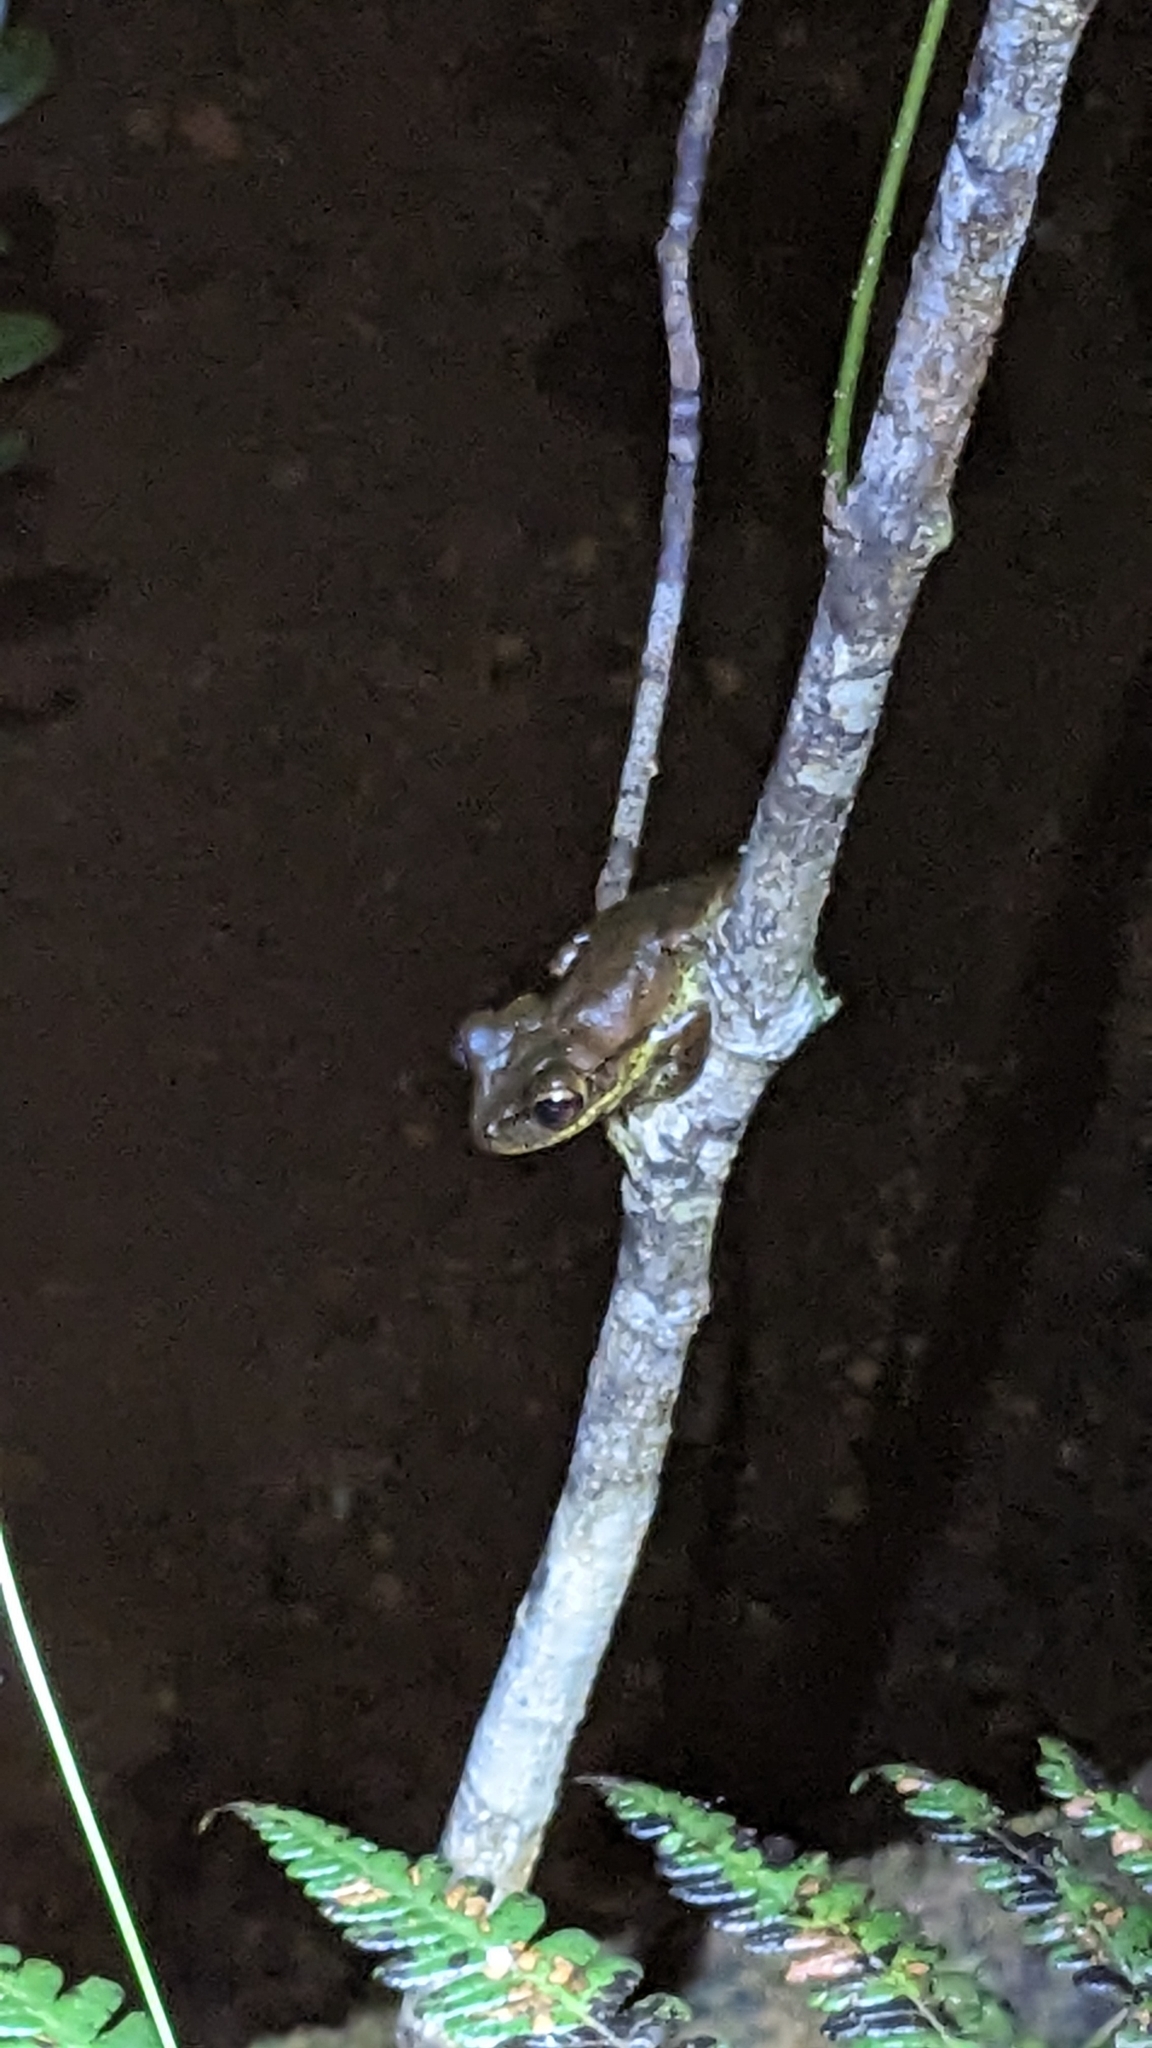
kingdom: Animalia
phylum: Chordata
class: Amphibia
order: Anura
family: Hylidae
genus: Osteopilus
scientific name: Osteopilus septentrionalis
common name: Cuban treefrog
